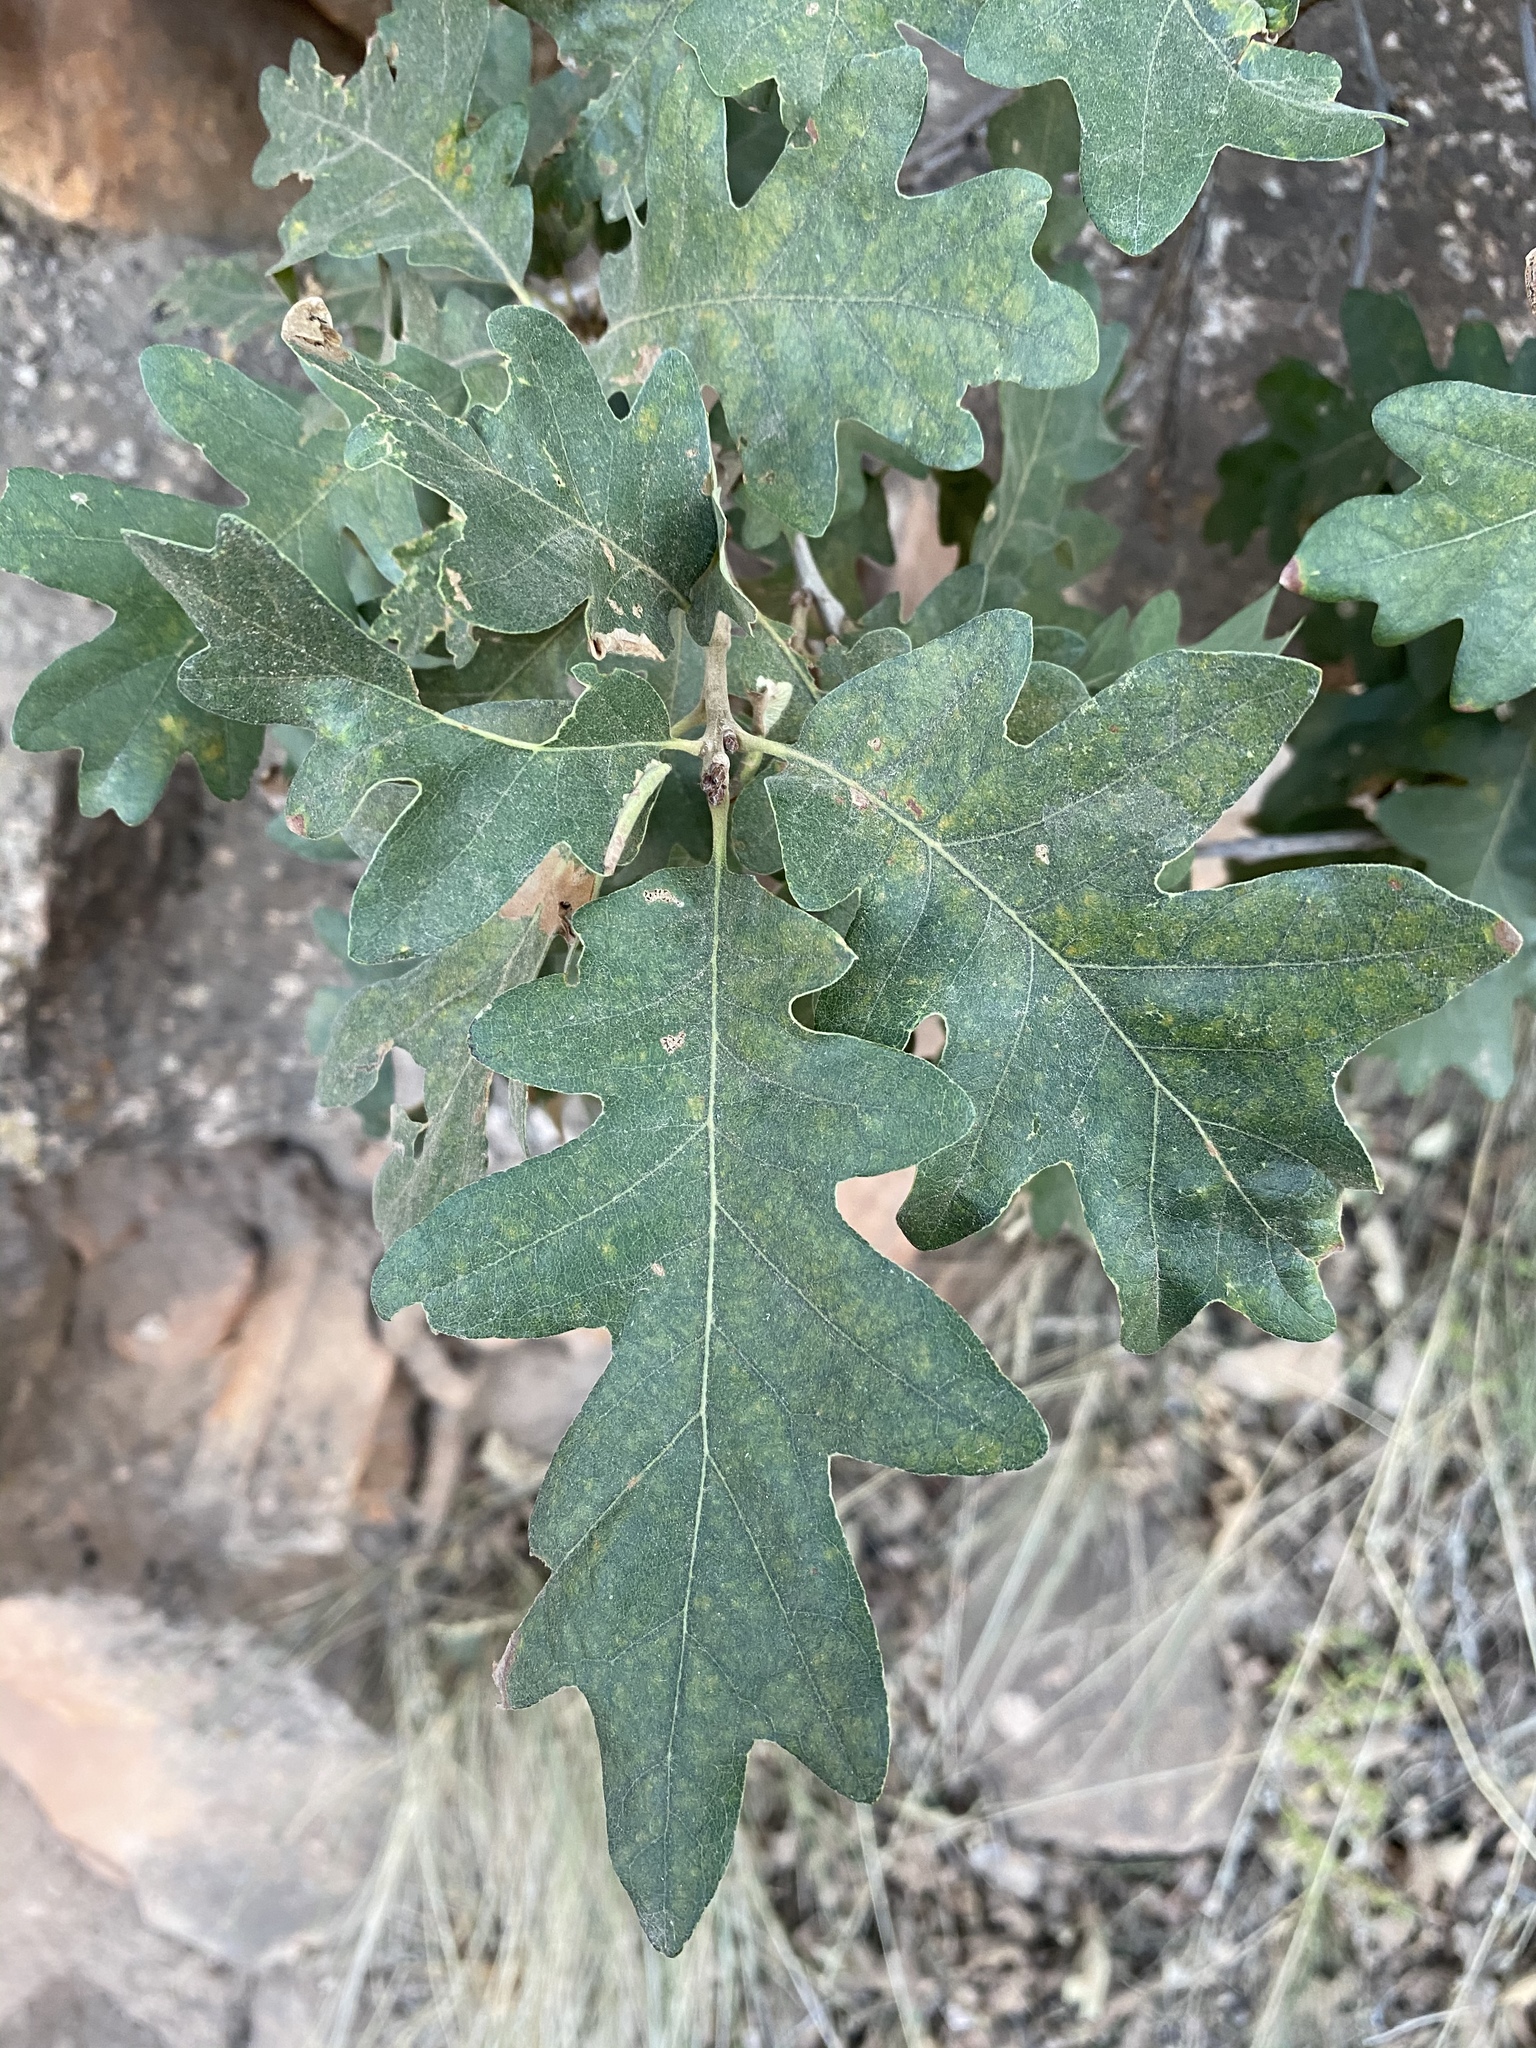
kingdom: Plantae
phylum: Tracheophyta
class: Magnoliopsida
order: Fagales
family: Fagaceae
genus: Quercus
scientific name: Quercus gambelii
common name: Gambel oak
